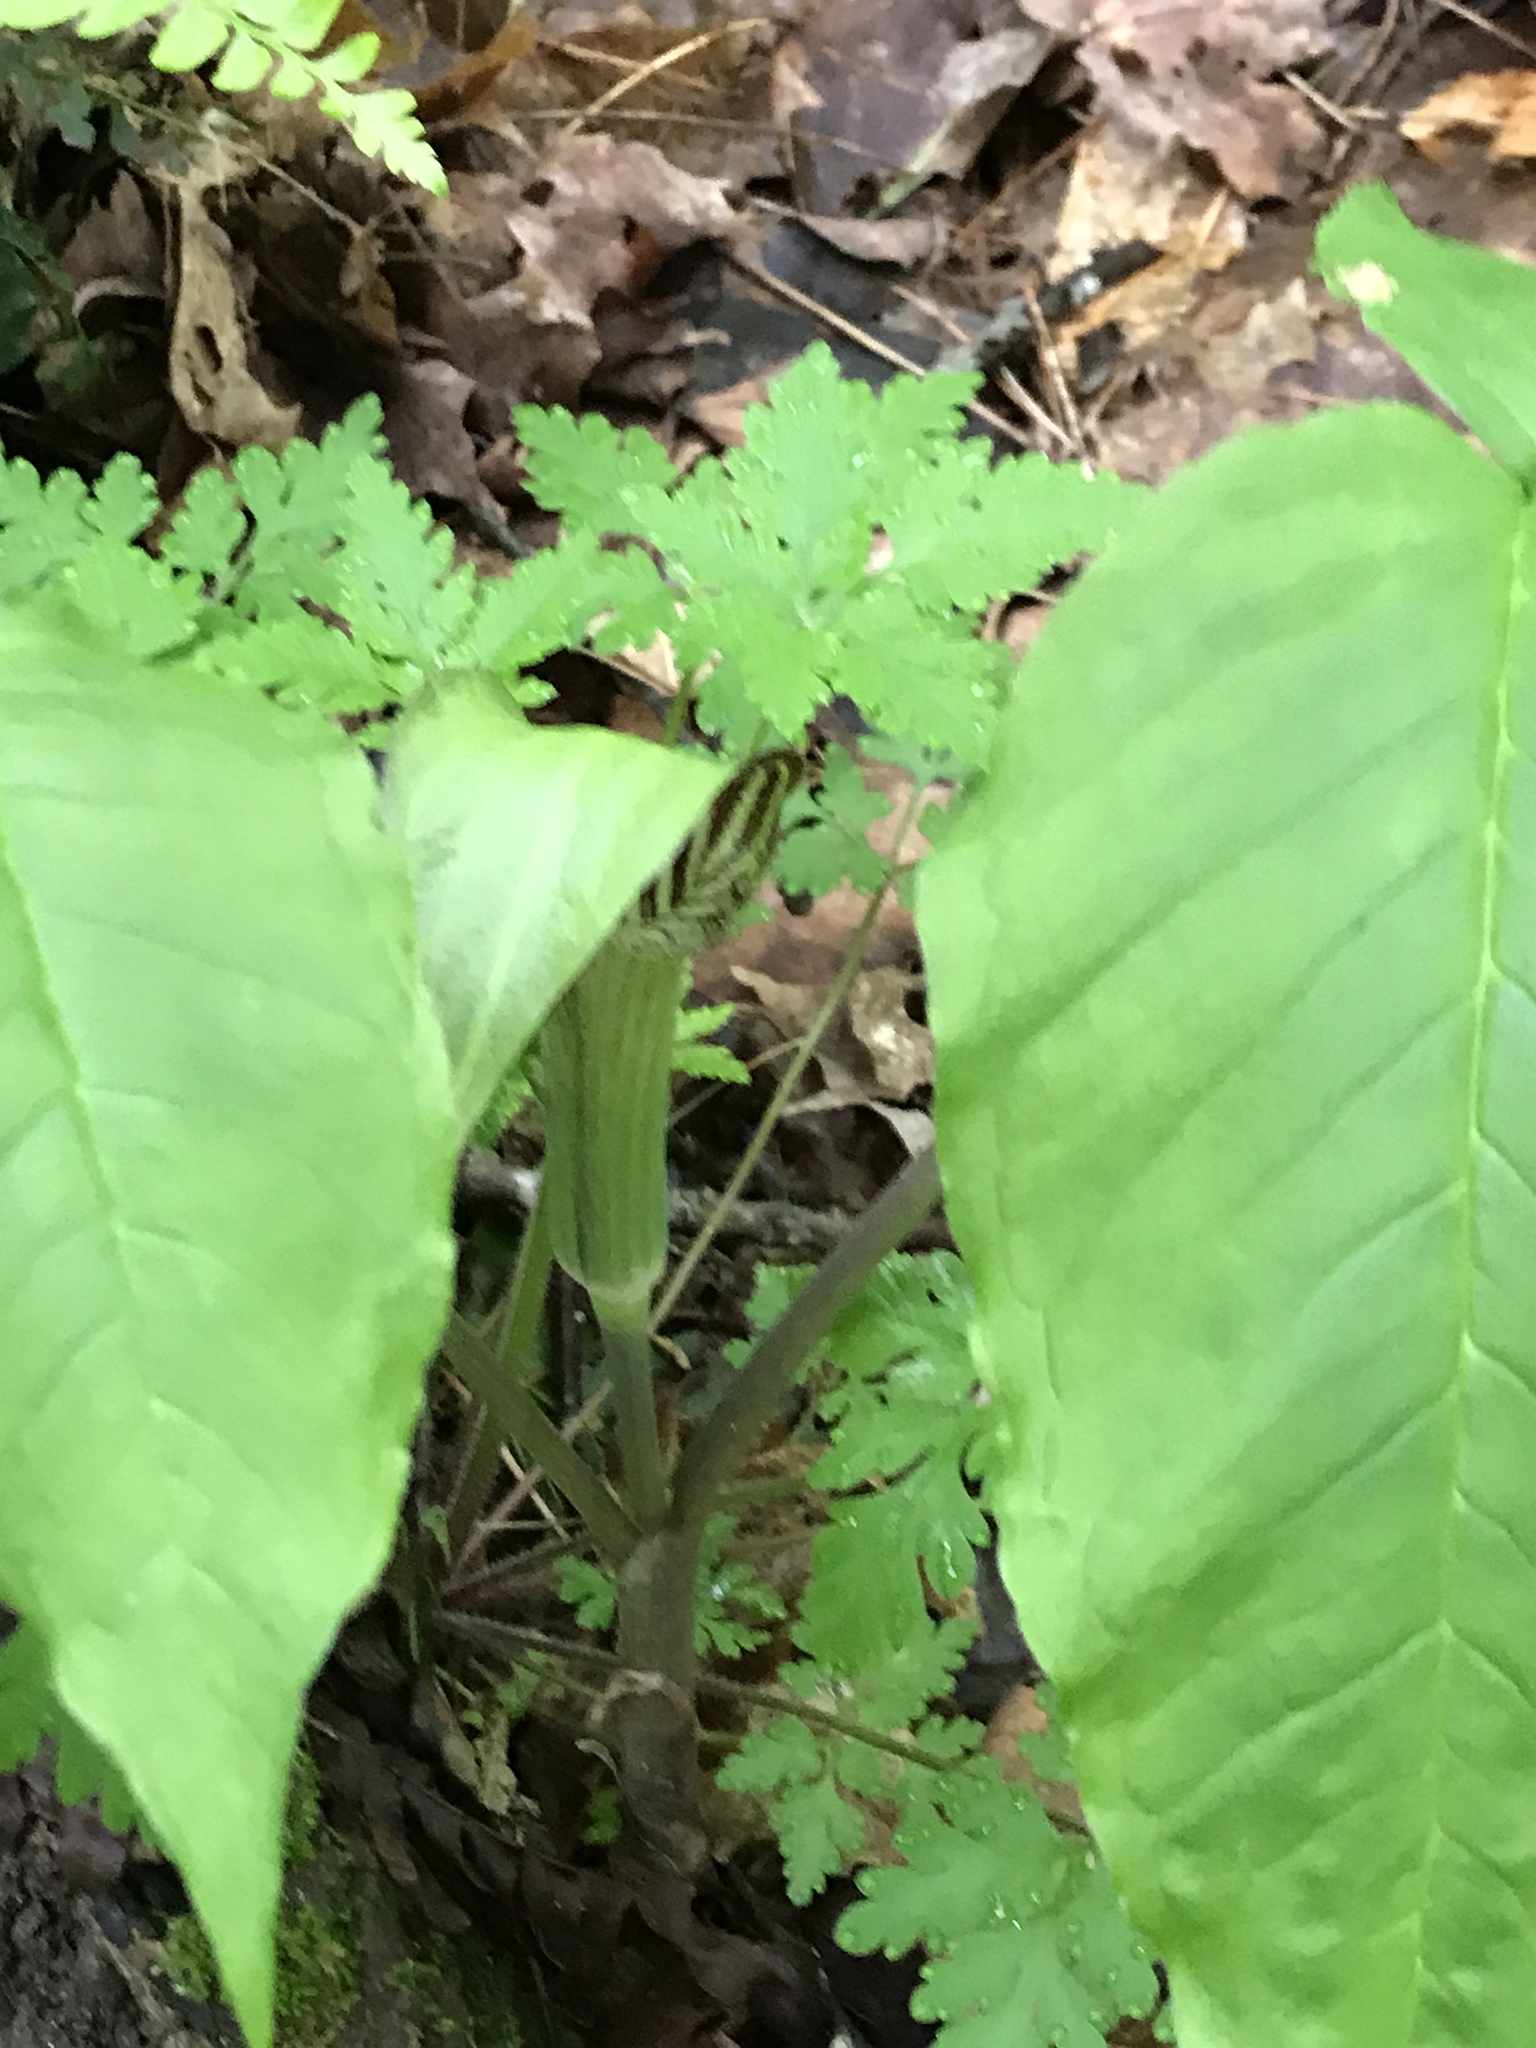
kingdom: Plantae
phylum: Tracheophyta
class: Liliopsida
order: Alismatales
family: Araceae
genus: Arisaema
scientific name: Arisaema triphyllum
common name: Jack-in-the-pulpit
